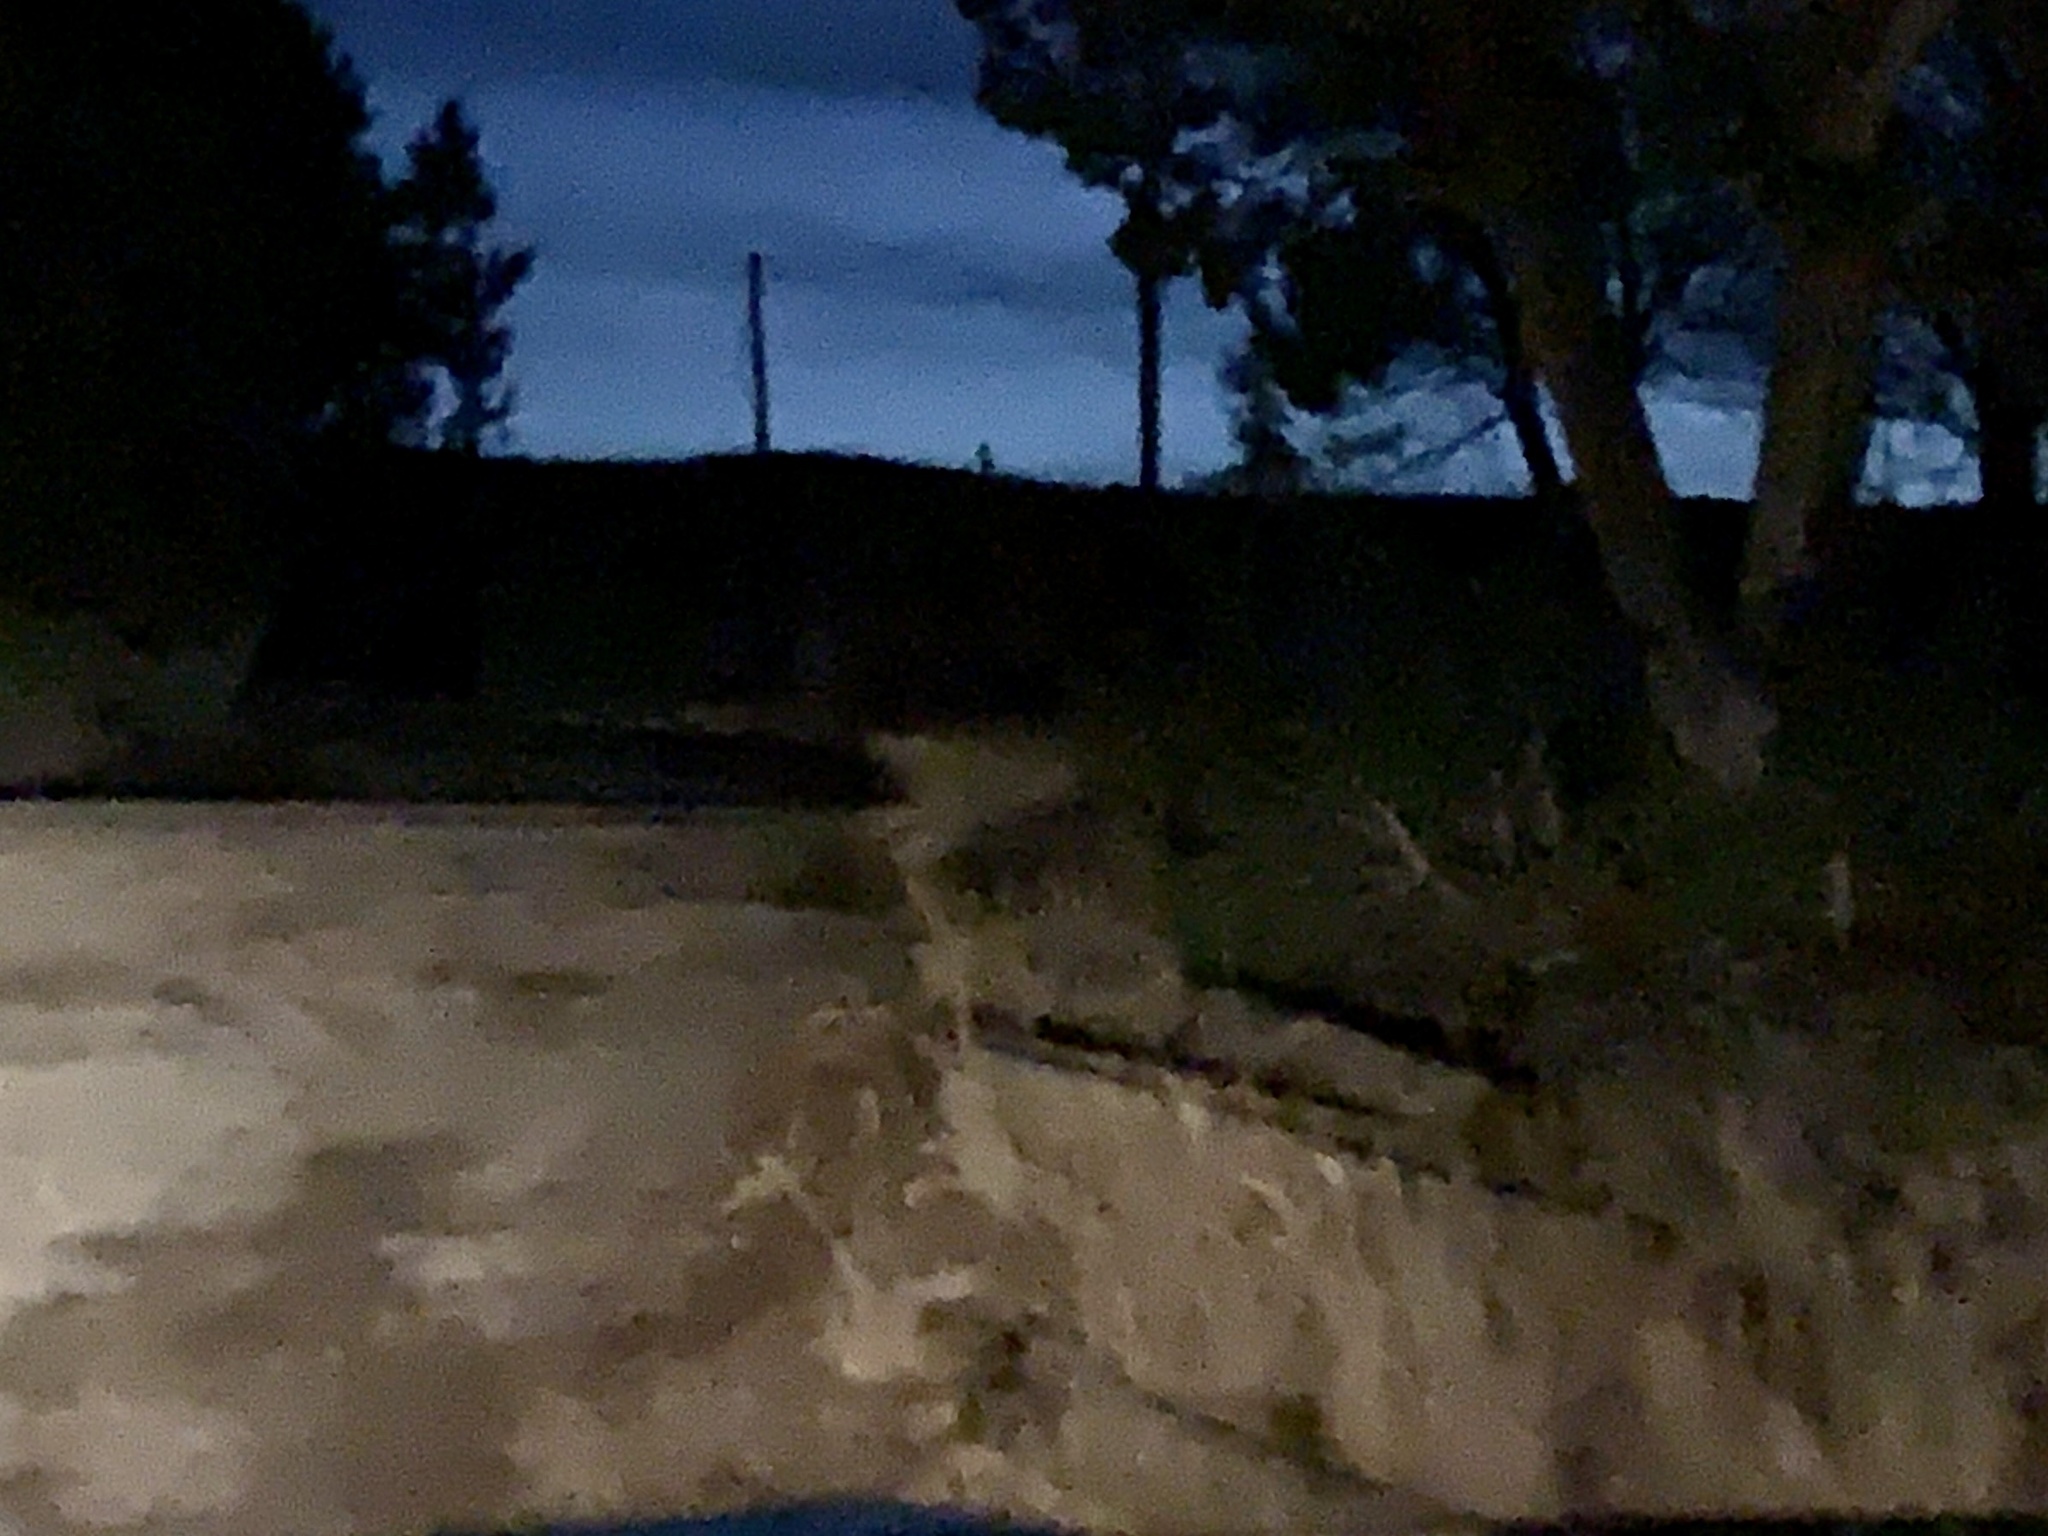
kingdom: Animalia
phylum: Chordata
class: Mammalia
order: Artiodactyla
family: Cervidae
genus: Odocoileus
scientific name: Odocoileus hemionus
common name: Mule deer
